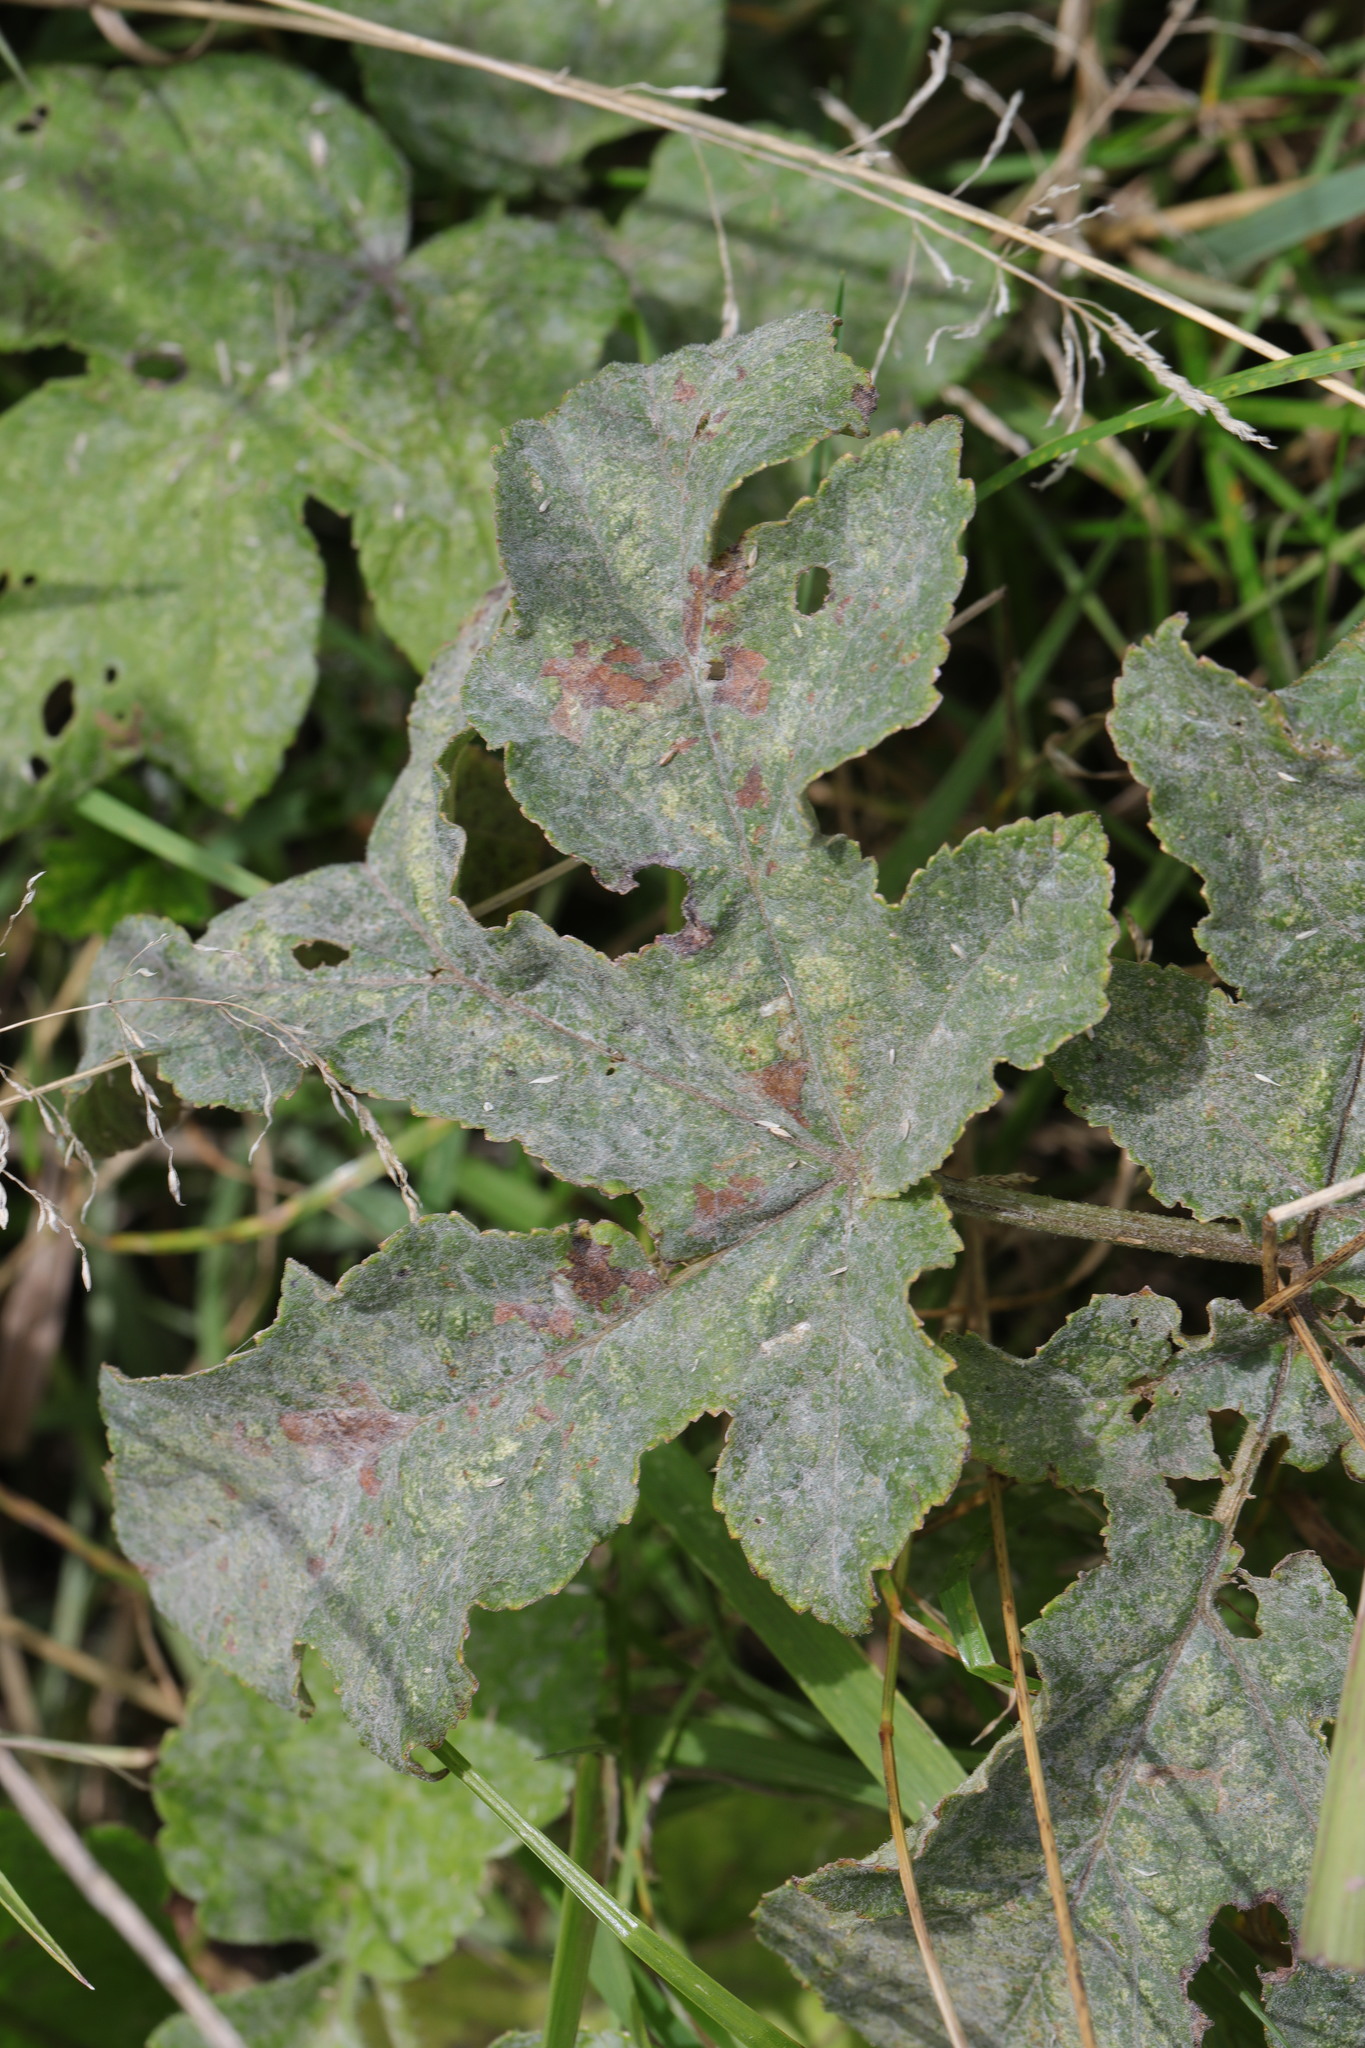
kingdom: Fungi
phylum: Ascomycota
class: Leotiomycetes
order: Helotiales
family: Erysiphaceae
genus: Erysiphe
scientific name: Erysiphe heraclei
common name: Umbellifer mildew
